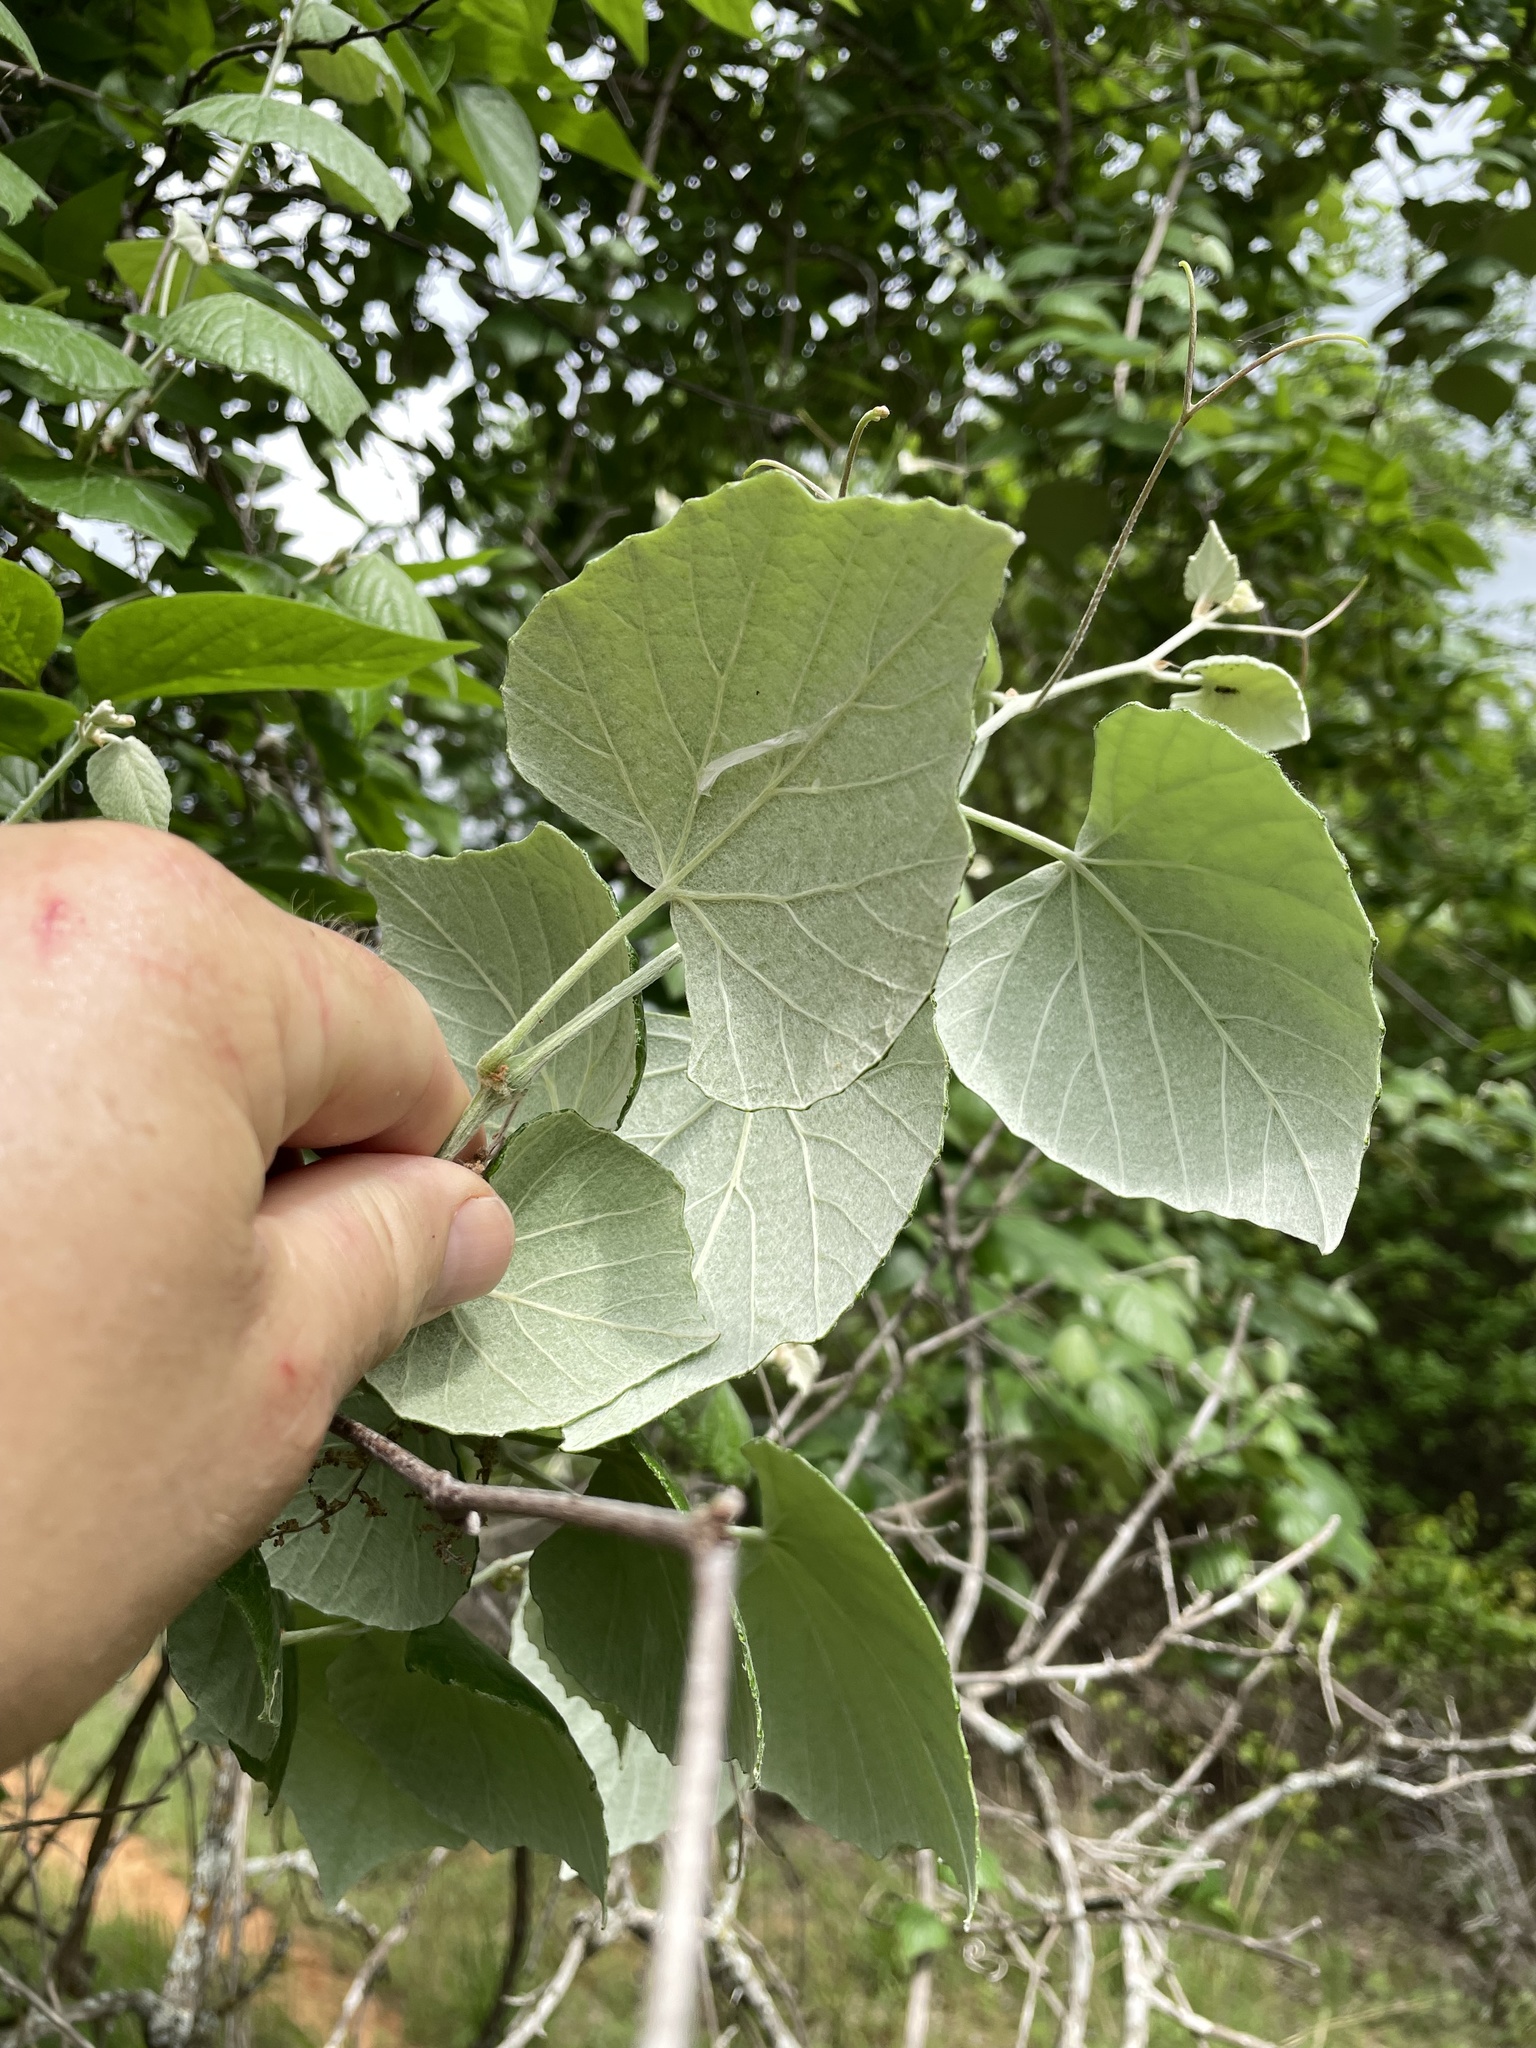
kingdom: Plantae
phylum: Tracheophyta
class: Magnoliopsida
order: Vitales
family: Vitaceae
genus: Vitis
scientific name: Vitis mustangensis
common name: Mustang grape
